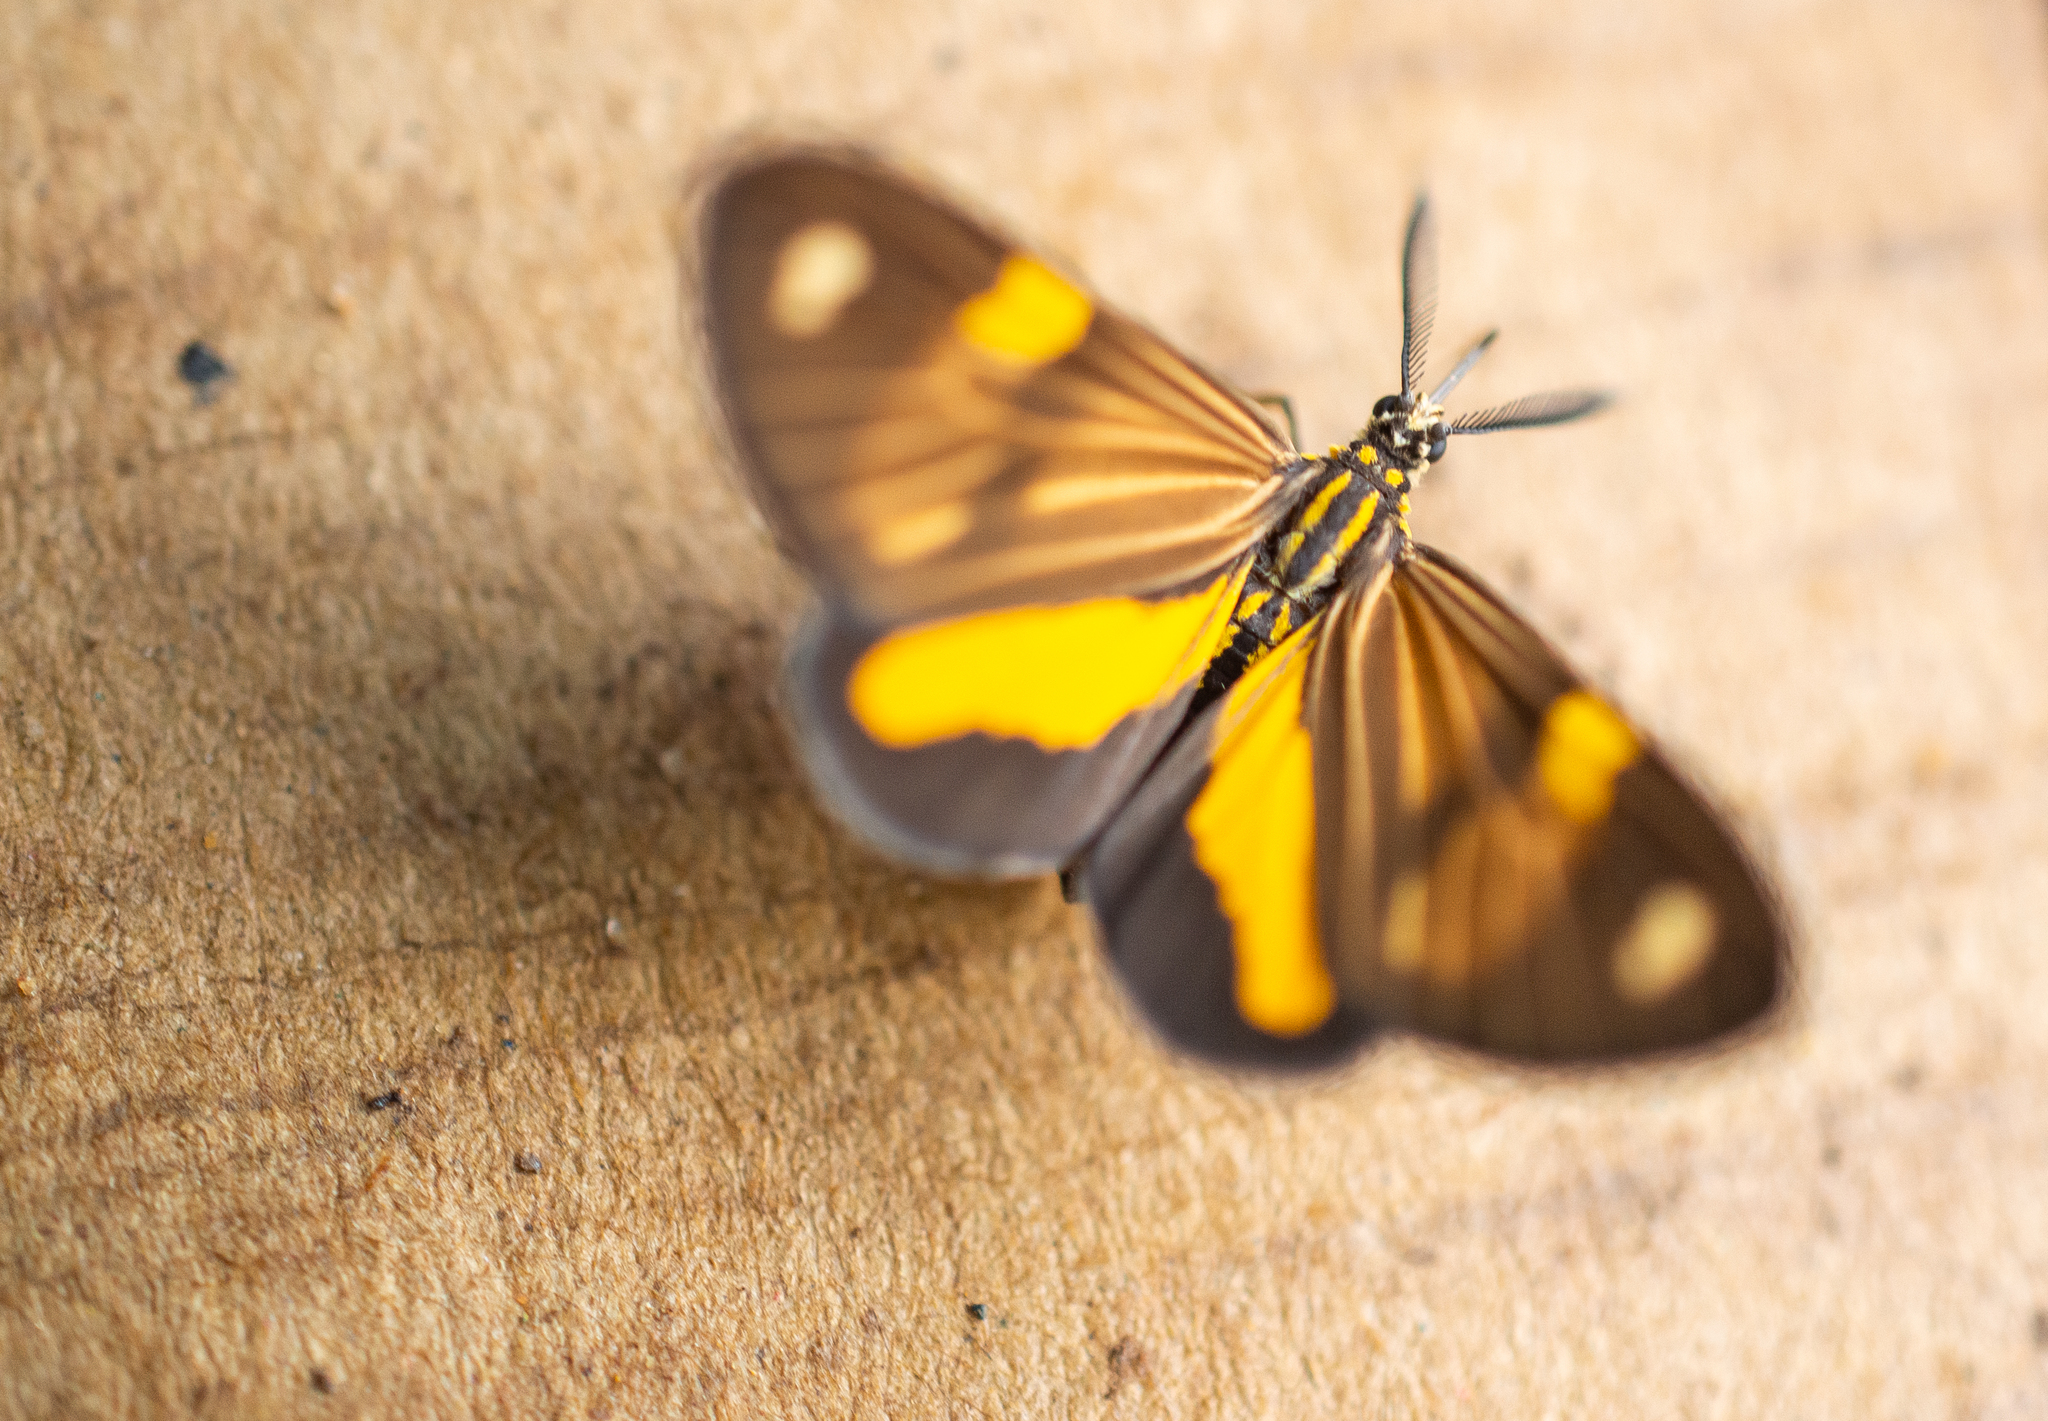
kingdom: Animalia
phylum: Arthropoda
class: Insecta
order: Lepidoptera
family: Notodontidae
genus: Phaeochlaena
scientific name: Phaeochlaena gyon
